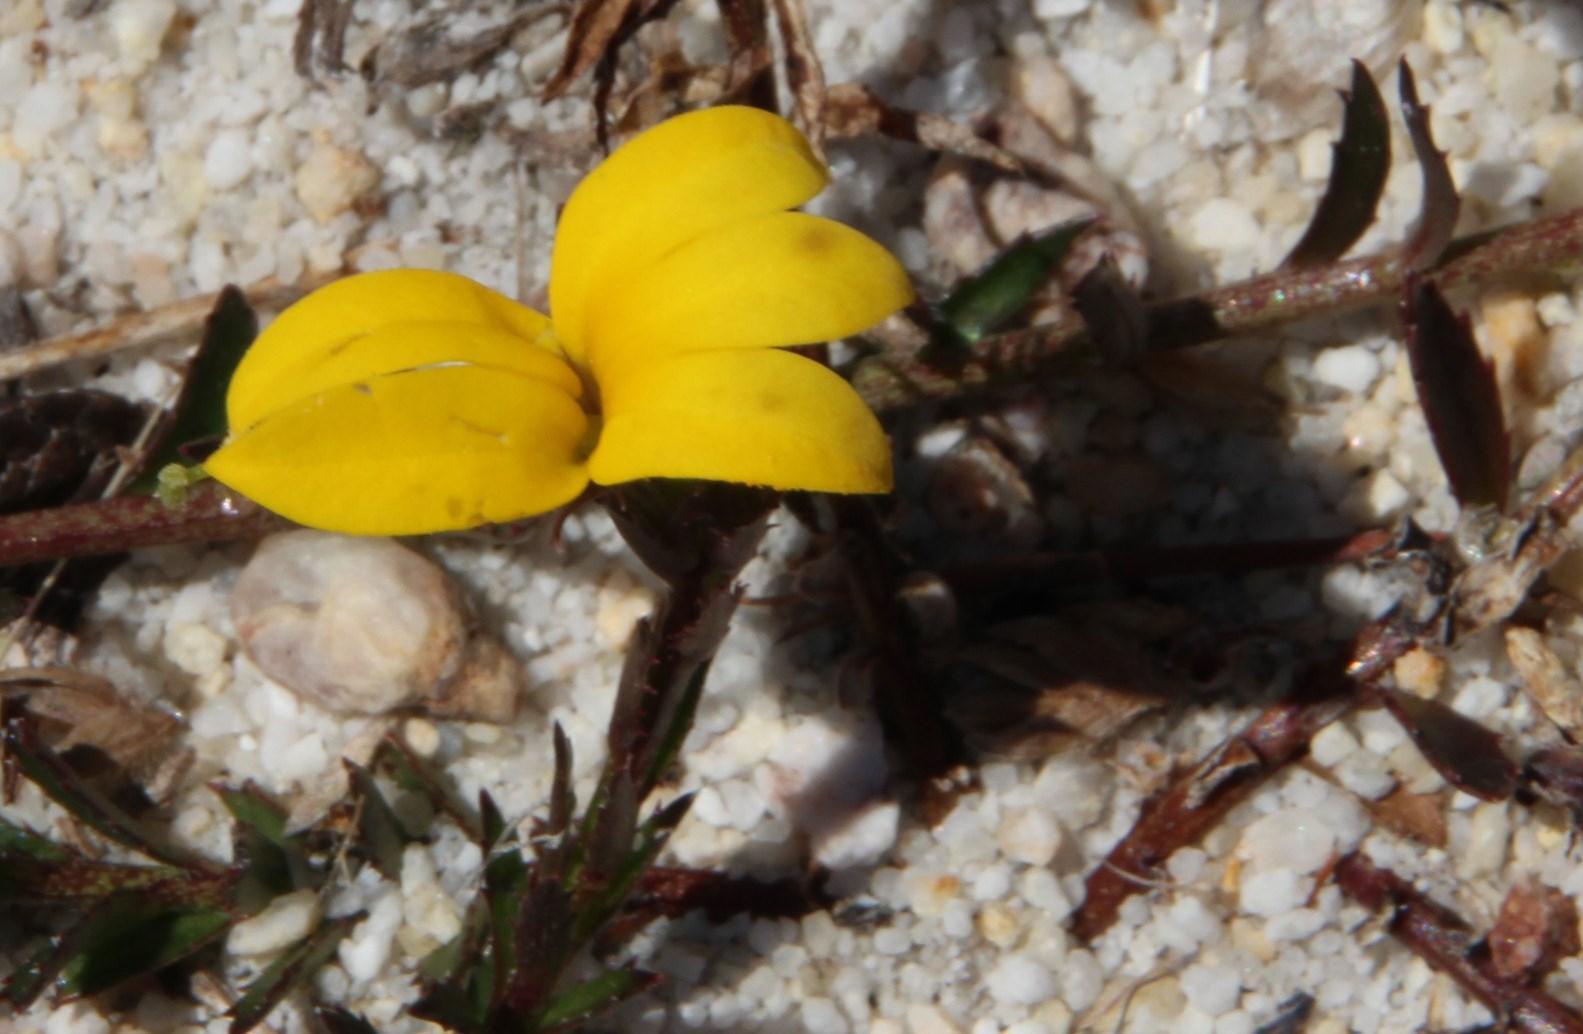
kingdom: Plantae
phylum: Tracheophyta
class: Magnoliopsida
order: Asterales
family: Campanulaceae
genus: Monopsis
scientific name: Monopsis lutea
